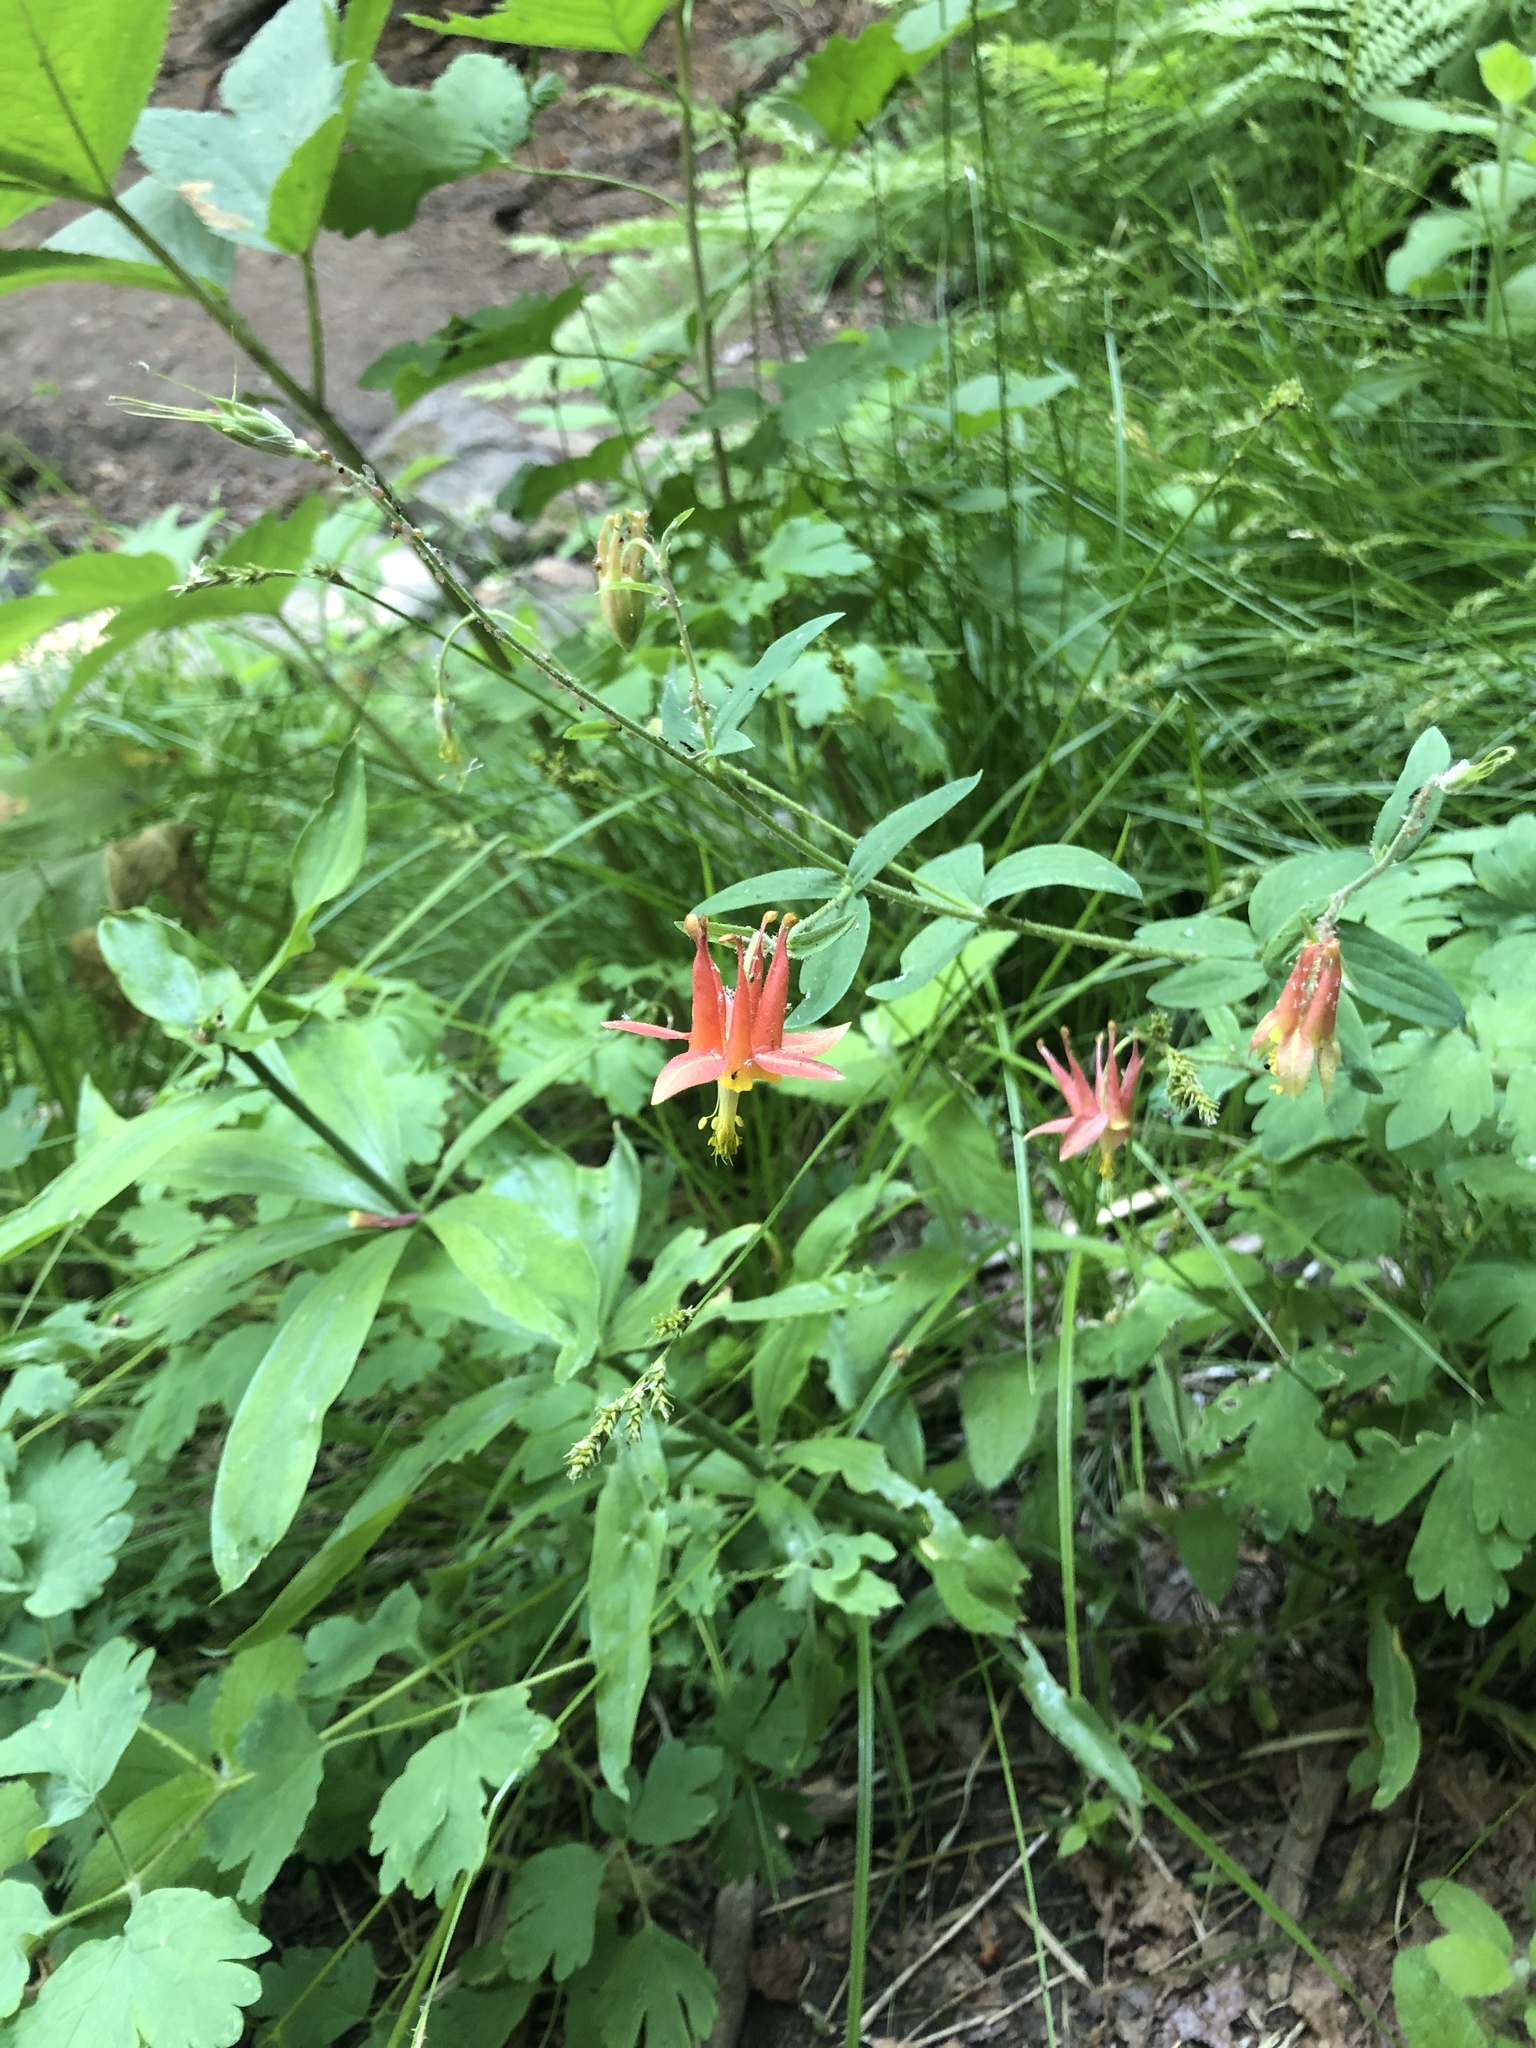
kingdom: Plantae
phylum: Tracheophyta
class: Magnoliopsida
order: Ranunculales
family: Ranunculaceae
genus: Aquilegia
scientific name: Aquilegia formosa
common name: Sitka columbine
